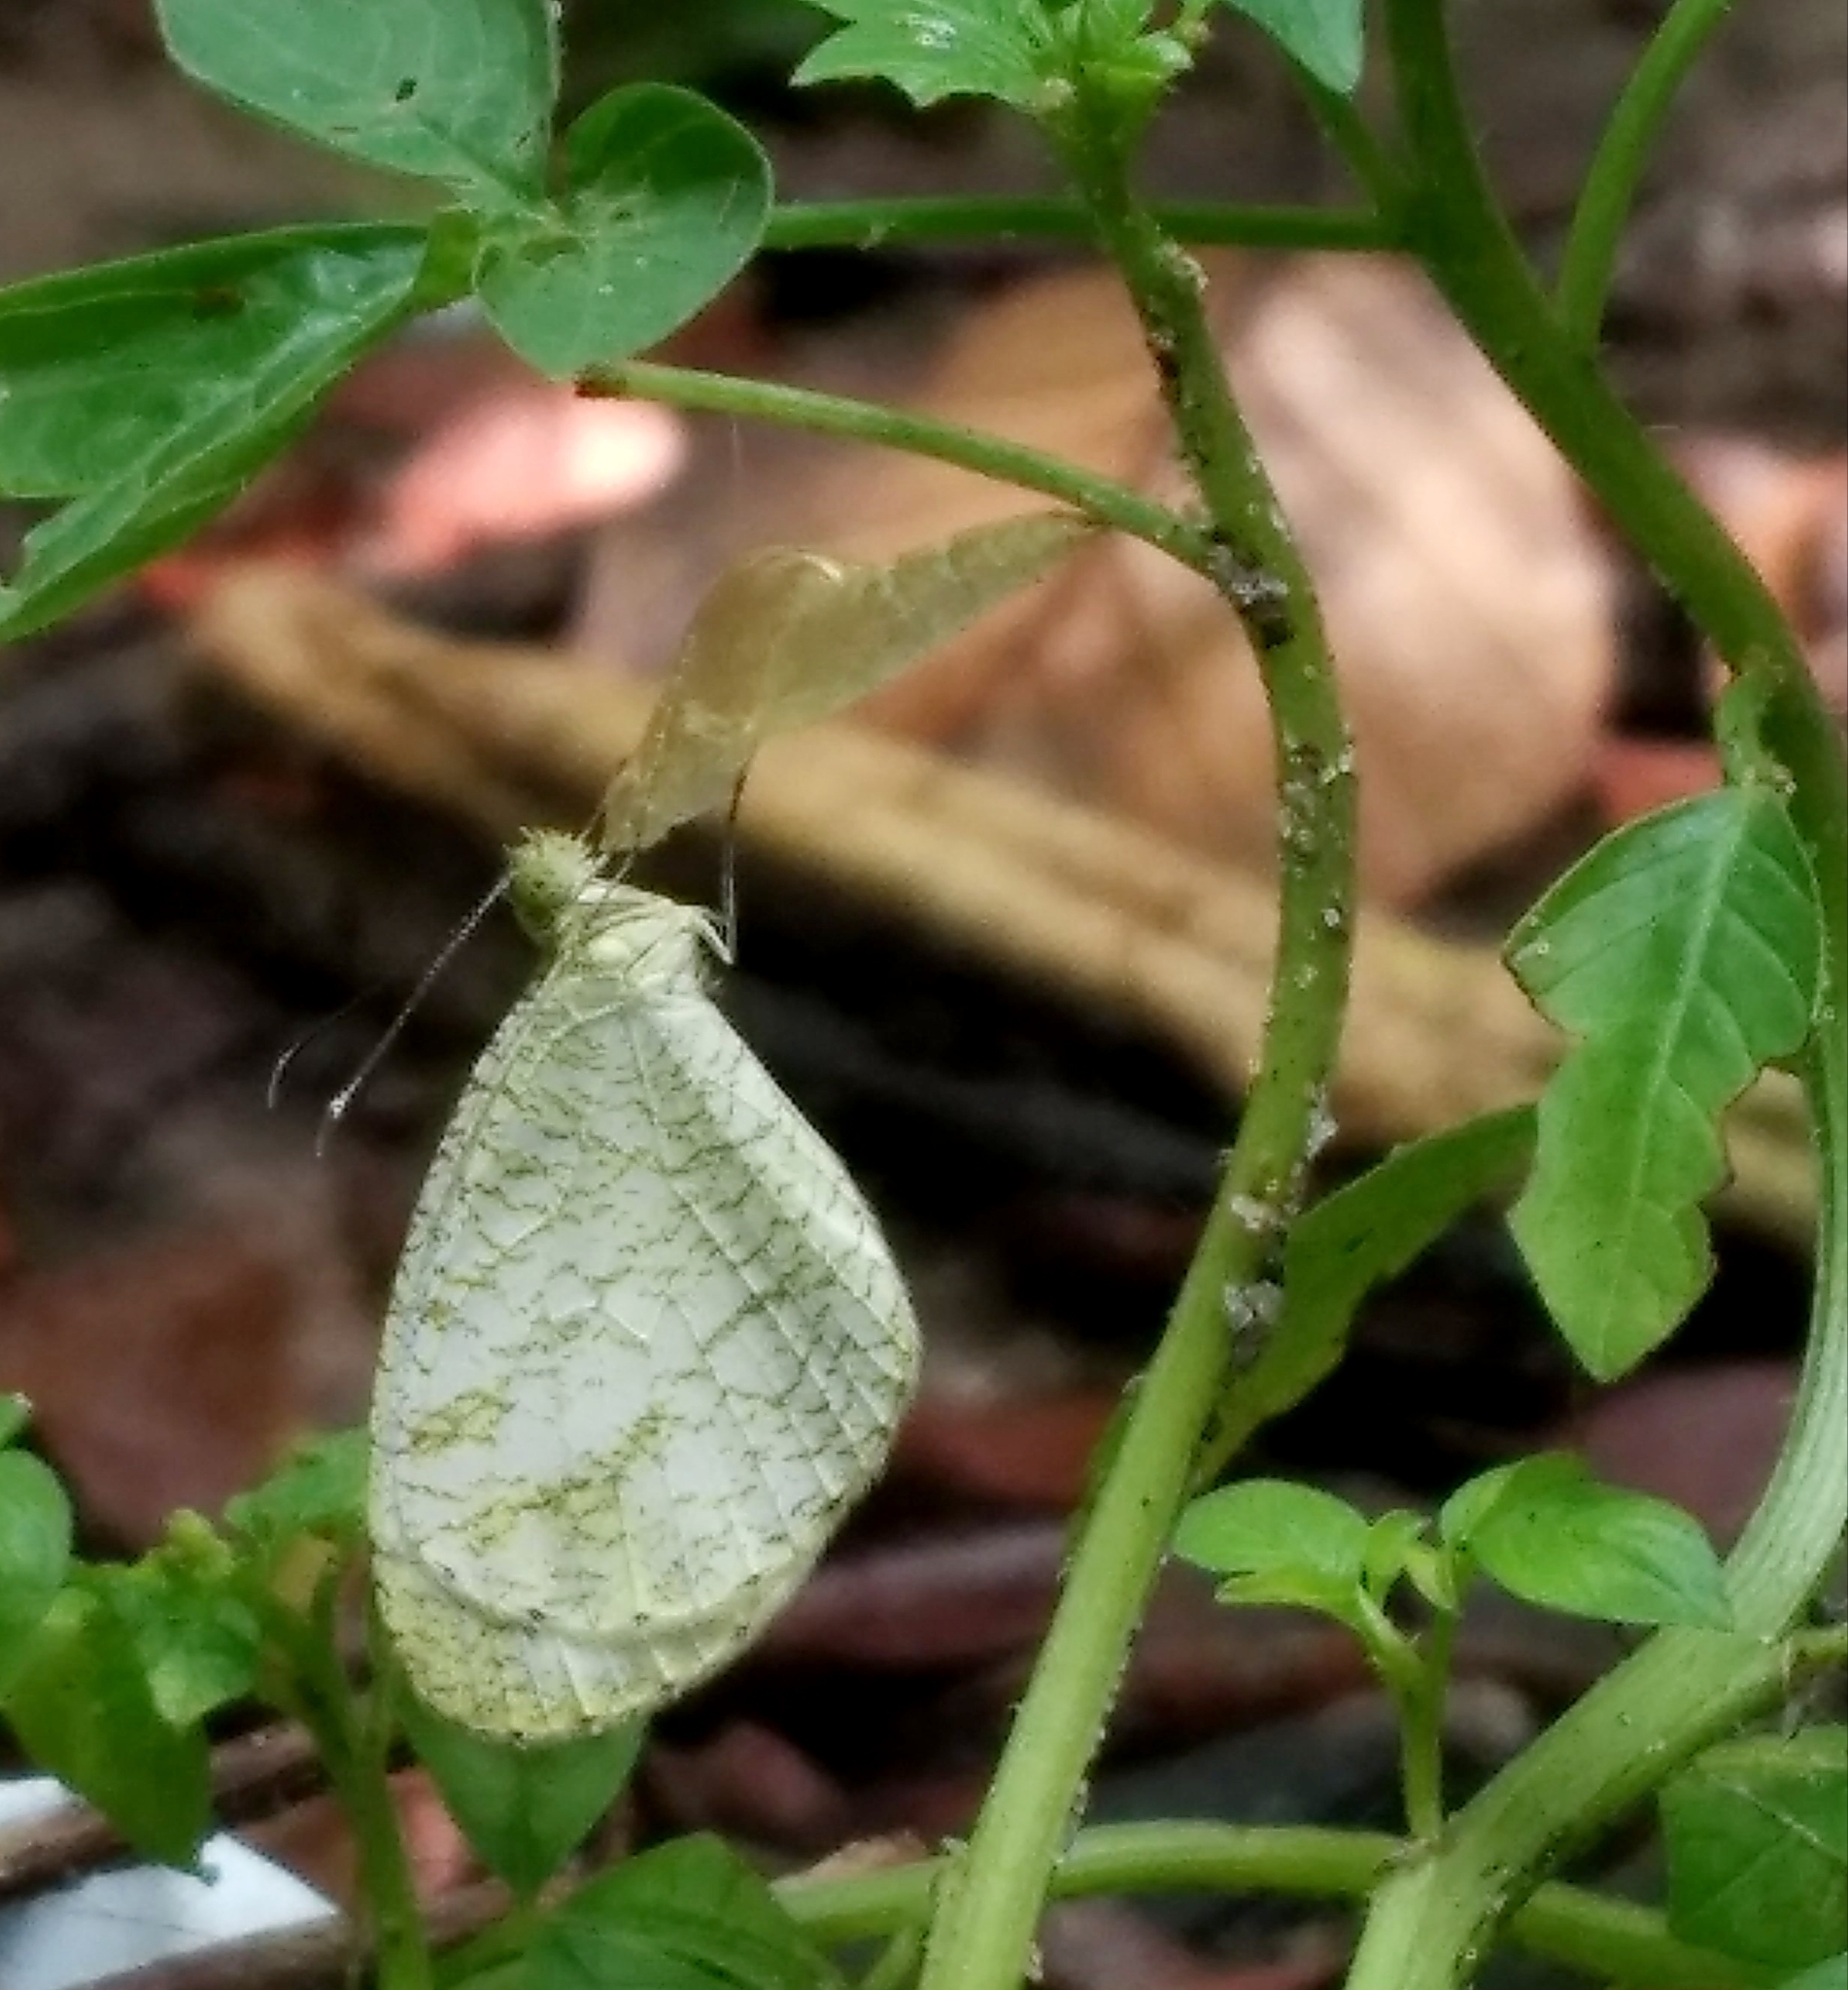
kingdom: Animalia
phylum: Arthropoda
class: Insecta
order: Lepidoptera
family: Pieridae
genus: Leptosia
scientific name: Leptosia nina
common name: Psyche
